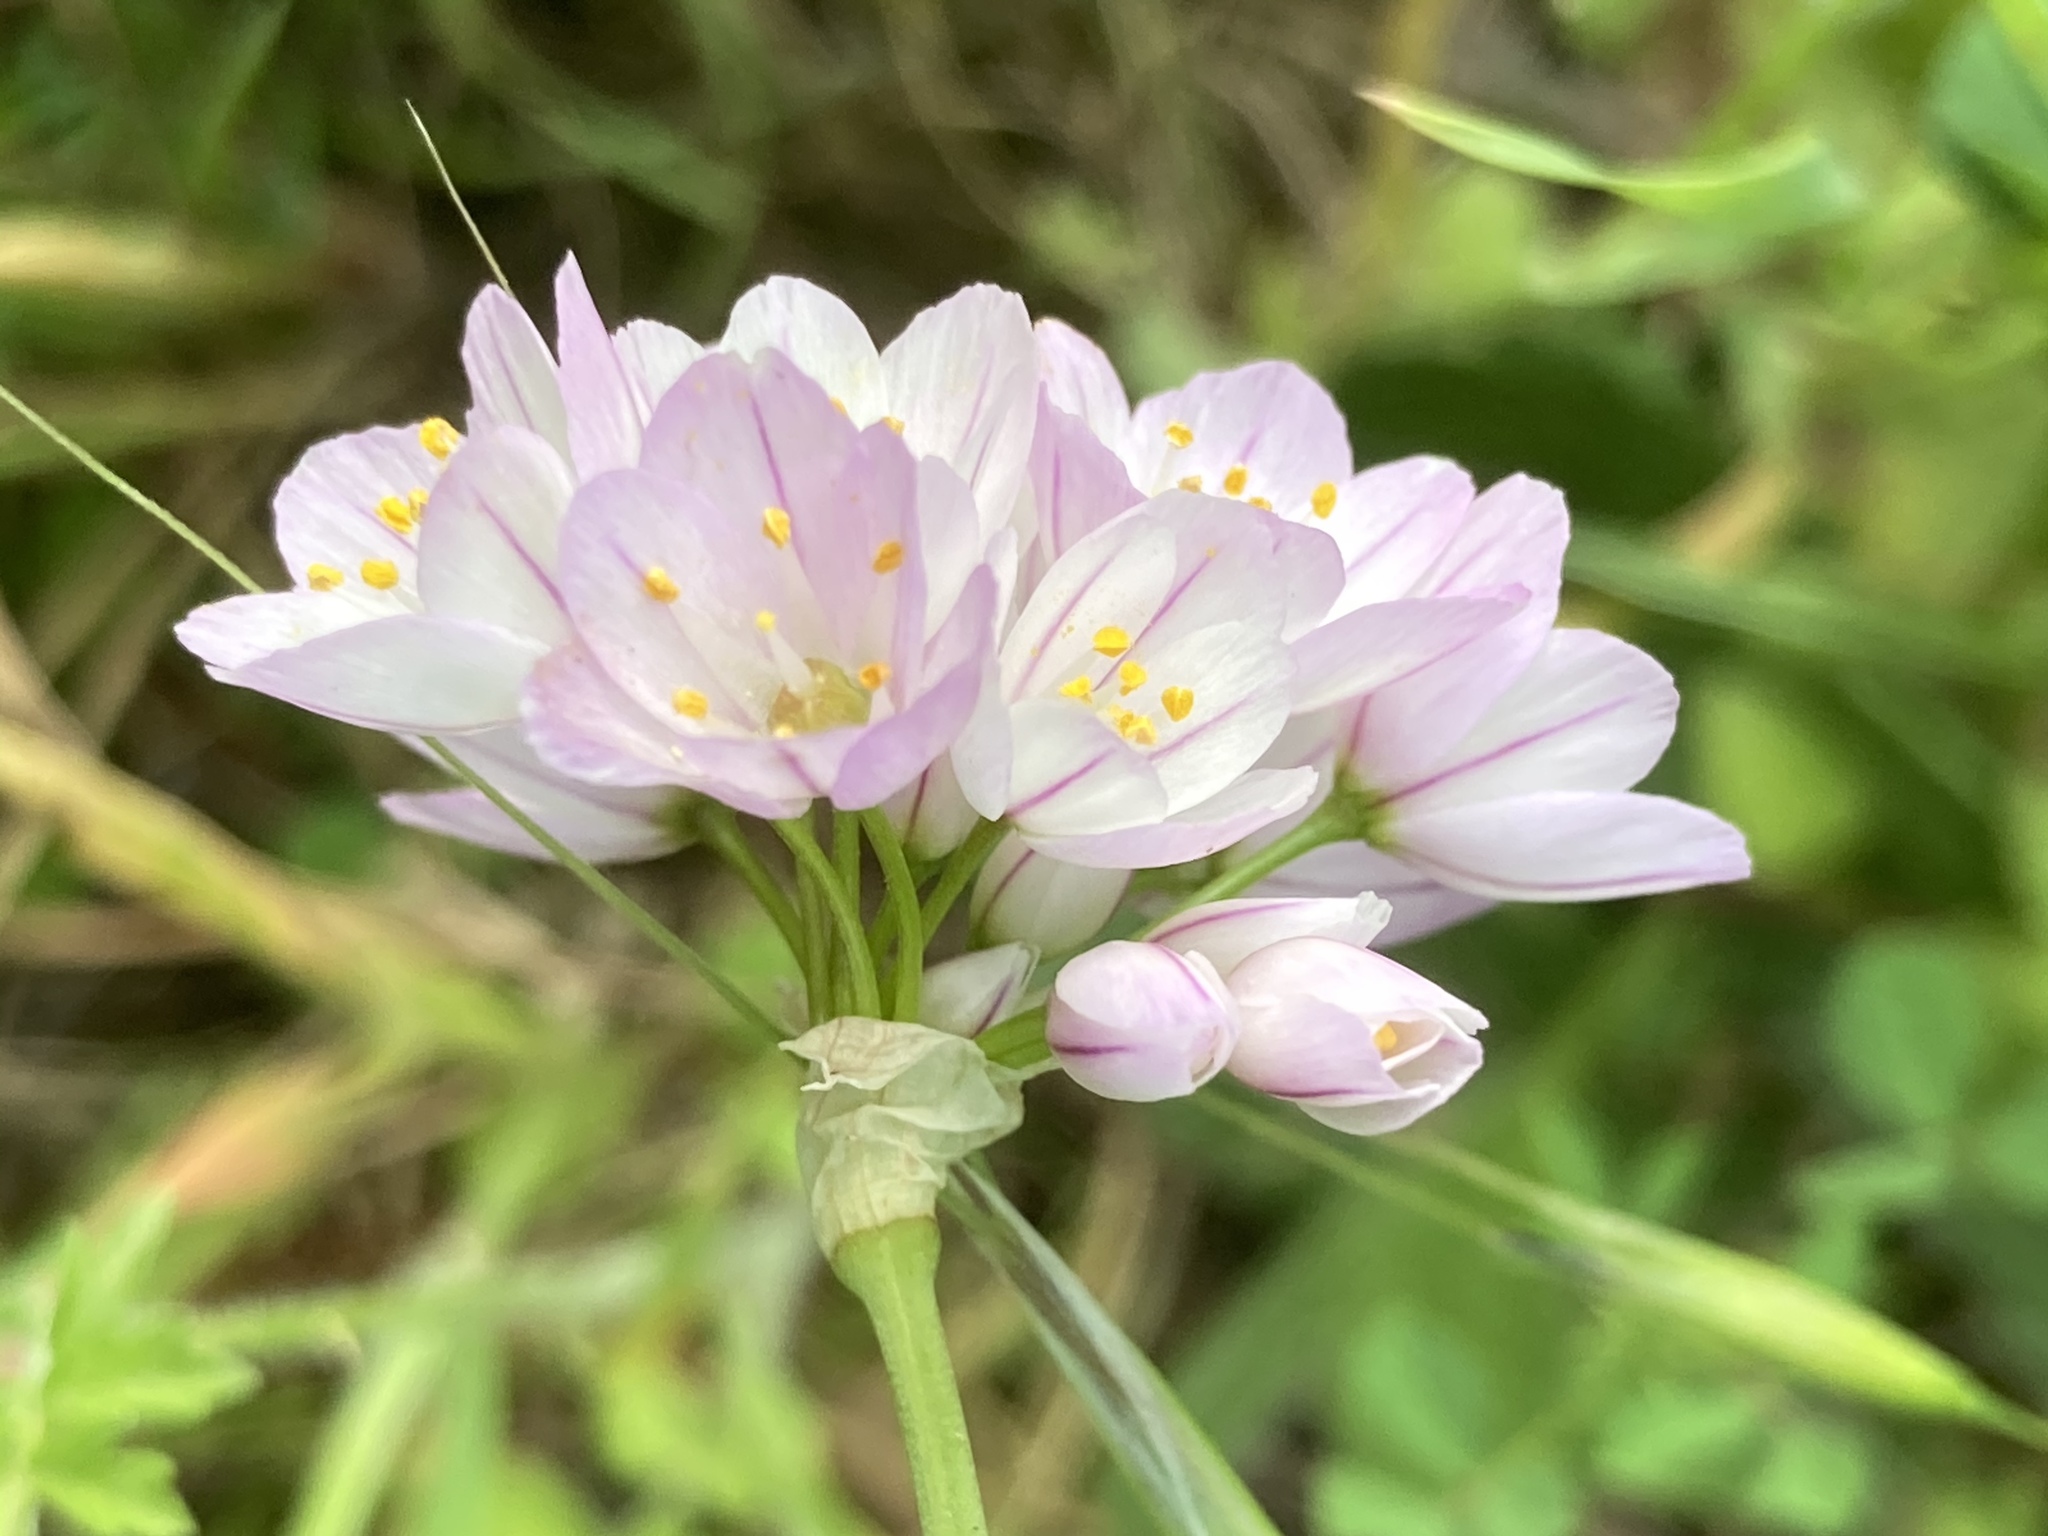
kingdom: Plantae
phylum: Tracheophyta
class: Liliopsida
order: Asparagales
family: Amaryllidaceae
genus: Allium
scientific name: Allium roseum
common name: Rosy garlic
